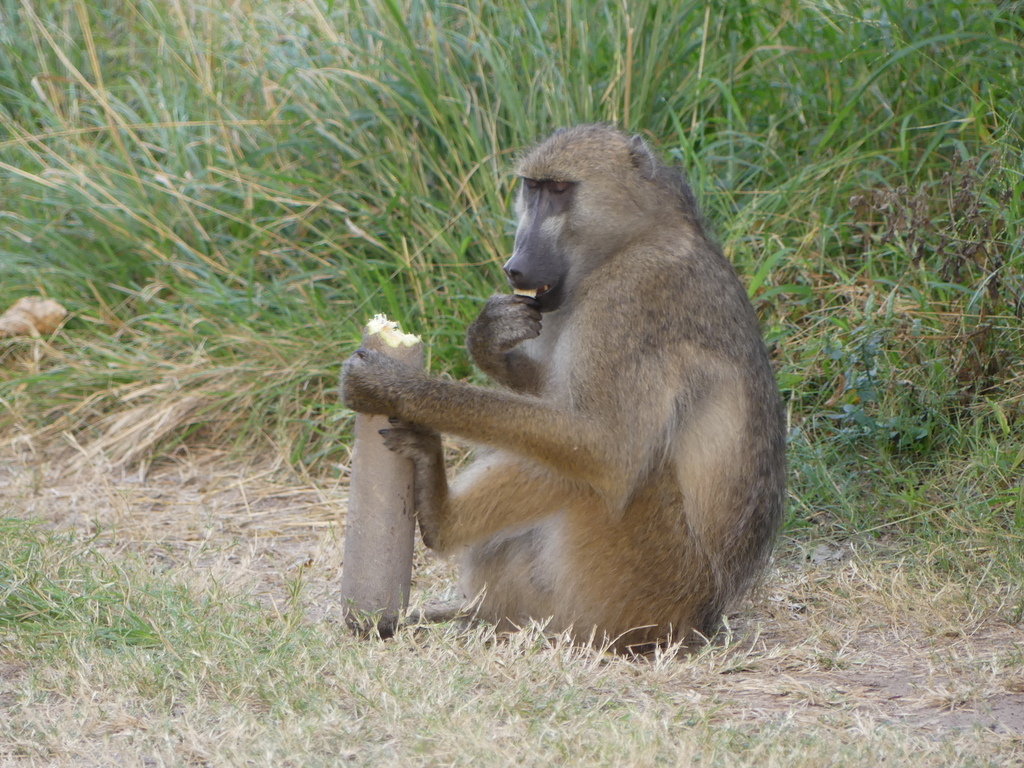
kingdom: Animalia
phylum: Chordata
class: Mammalia
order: Primates
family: Cercopithecidae
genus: Papio
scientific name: Papio ursinus
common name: Chacma baboon
